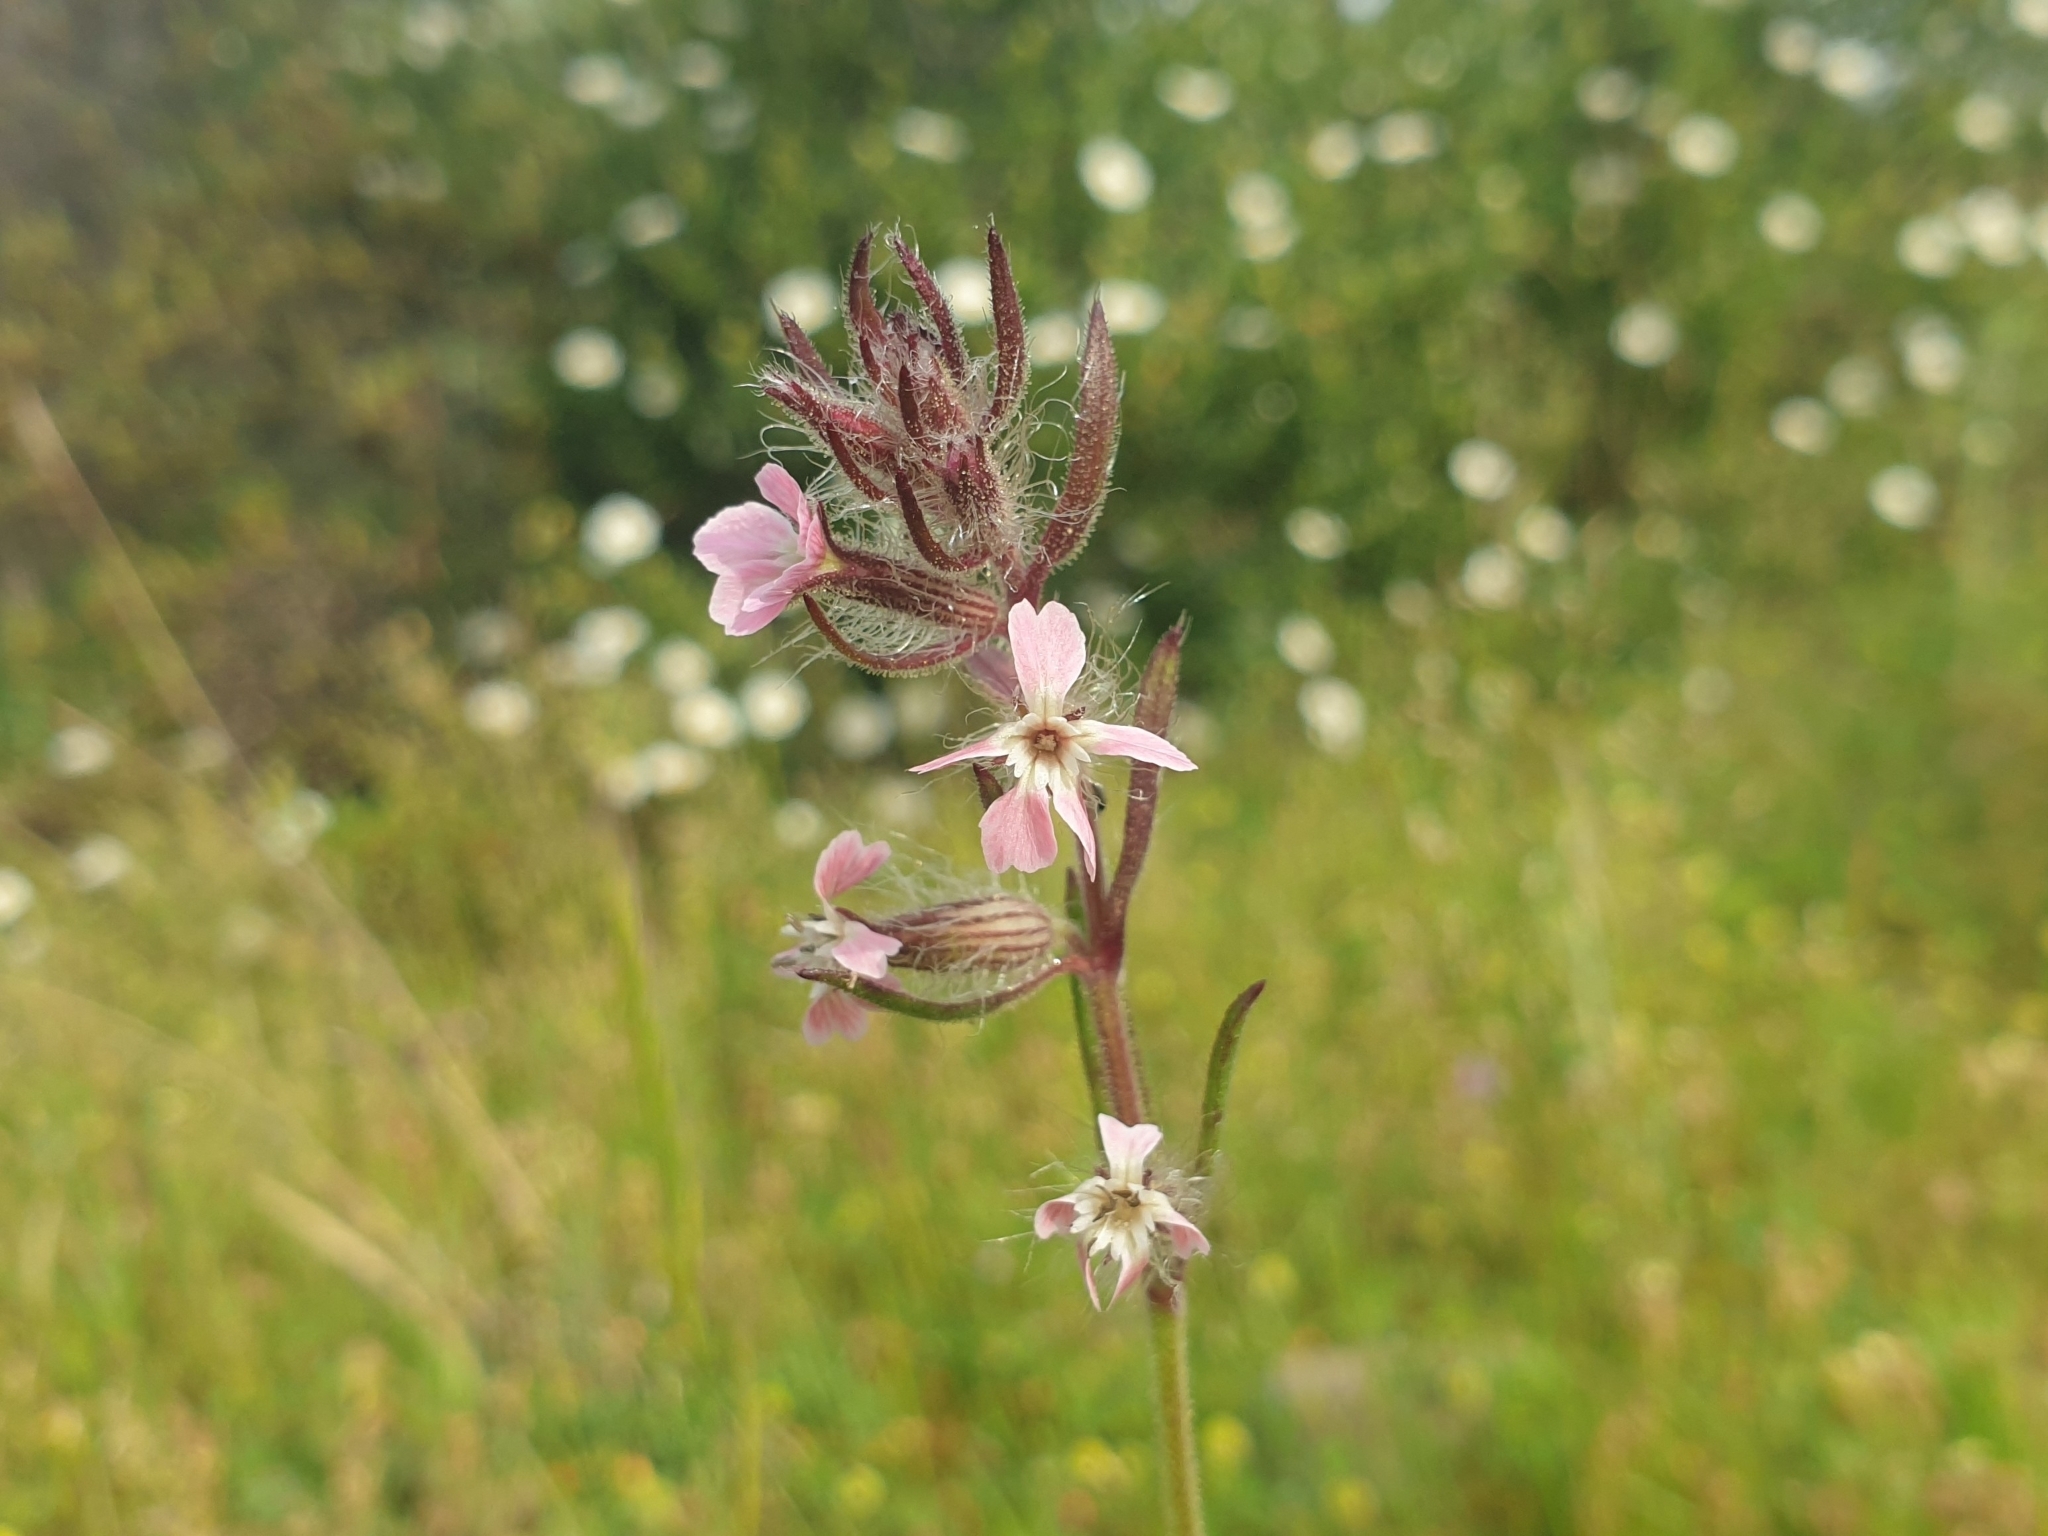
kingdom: Plantae
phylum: Tracheophyta
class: Magnoliopsida
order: Caryophyllales
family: Caryophyllaceae
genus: Silene
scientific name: Silene gallica
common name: Small-flowered catchfly
